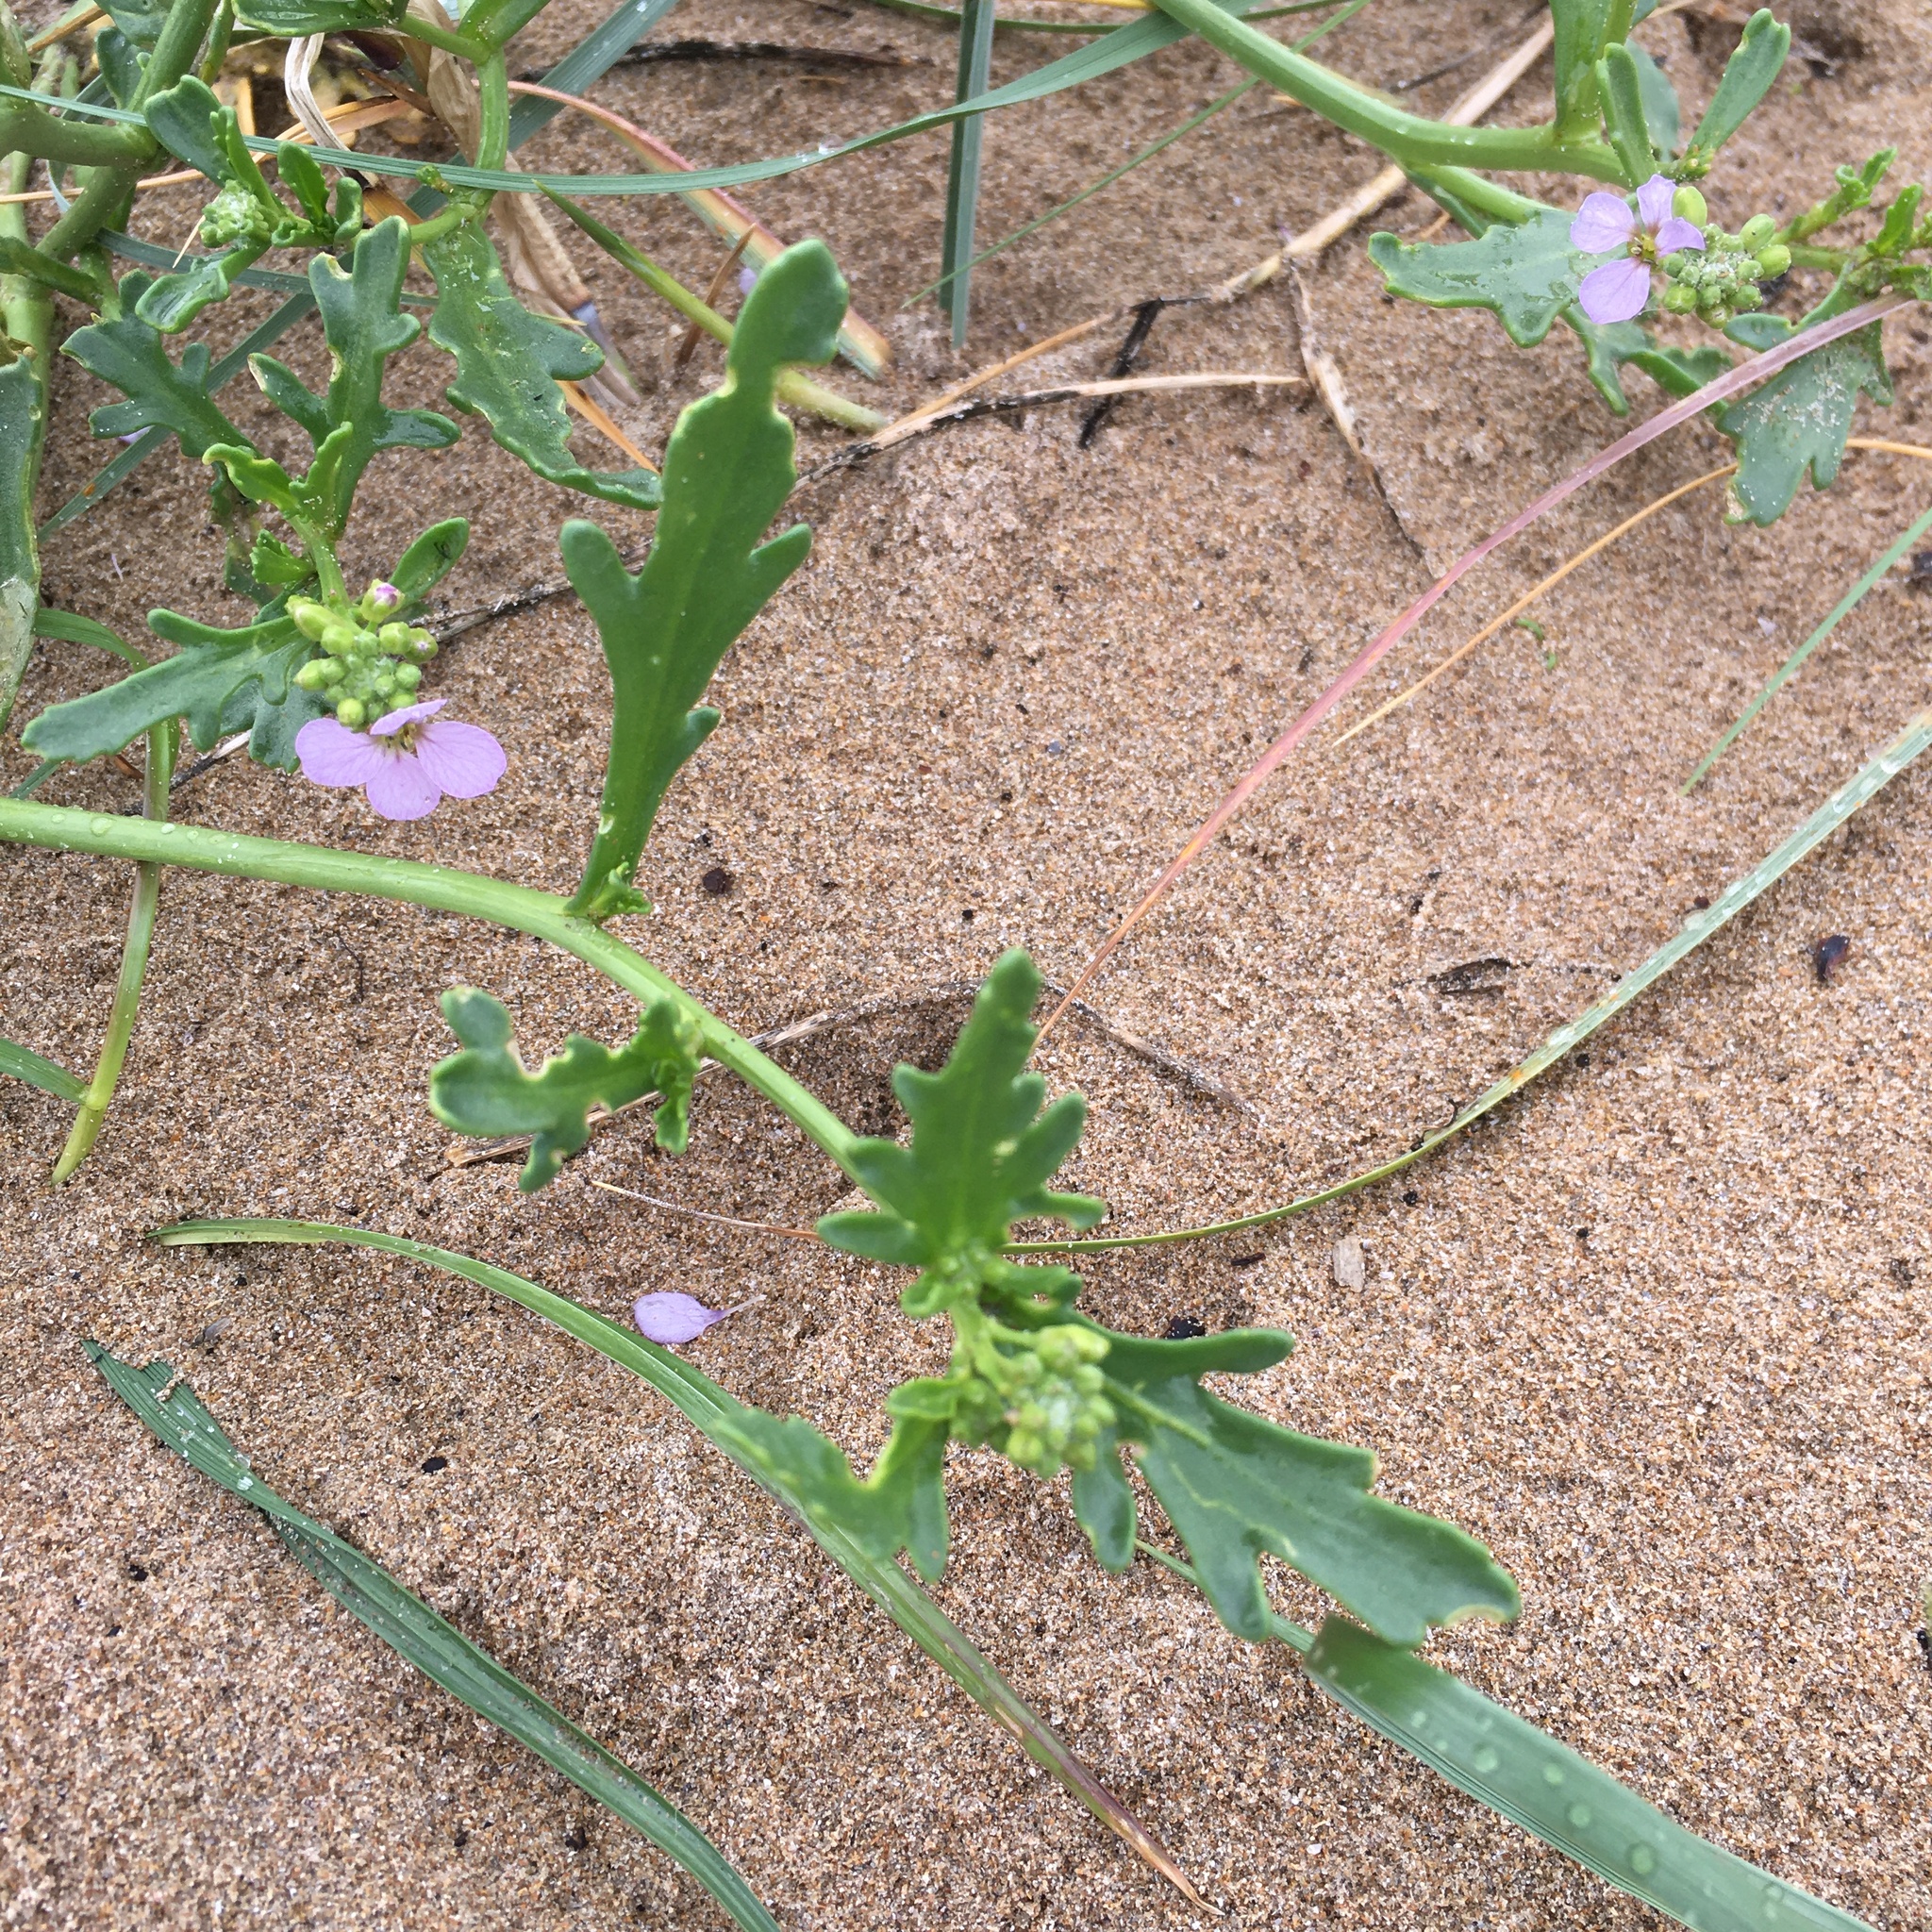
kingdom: Plantae
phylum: Tracheophyta
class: Magnoliopsida
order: Brassicales
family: Brassicaceae
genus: Cakile
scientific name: Cakile maritima
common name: Sea rocket
